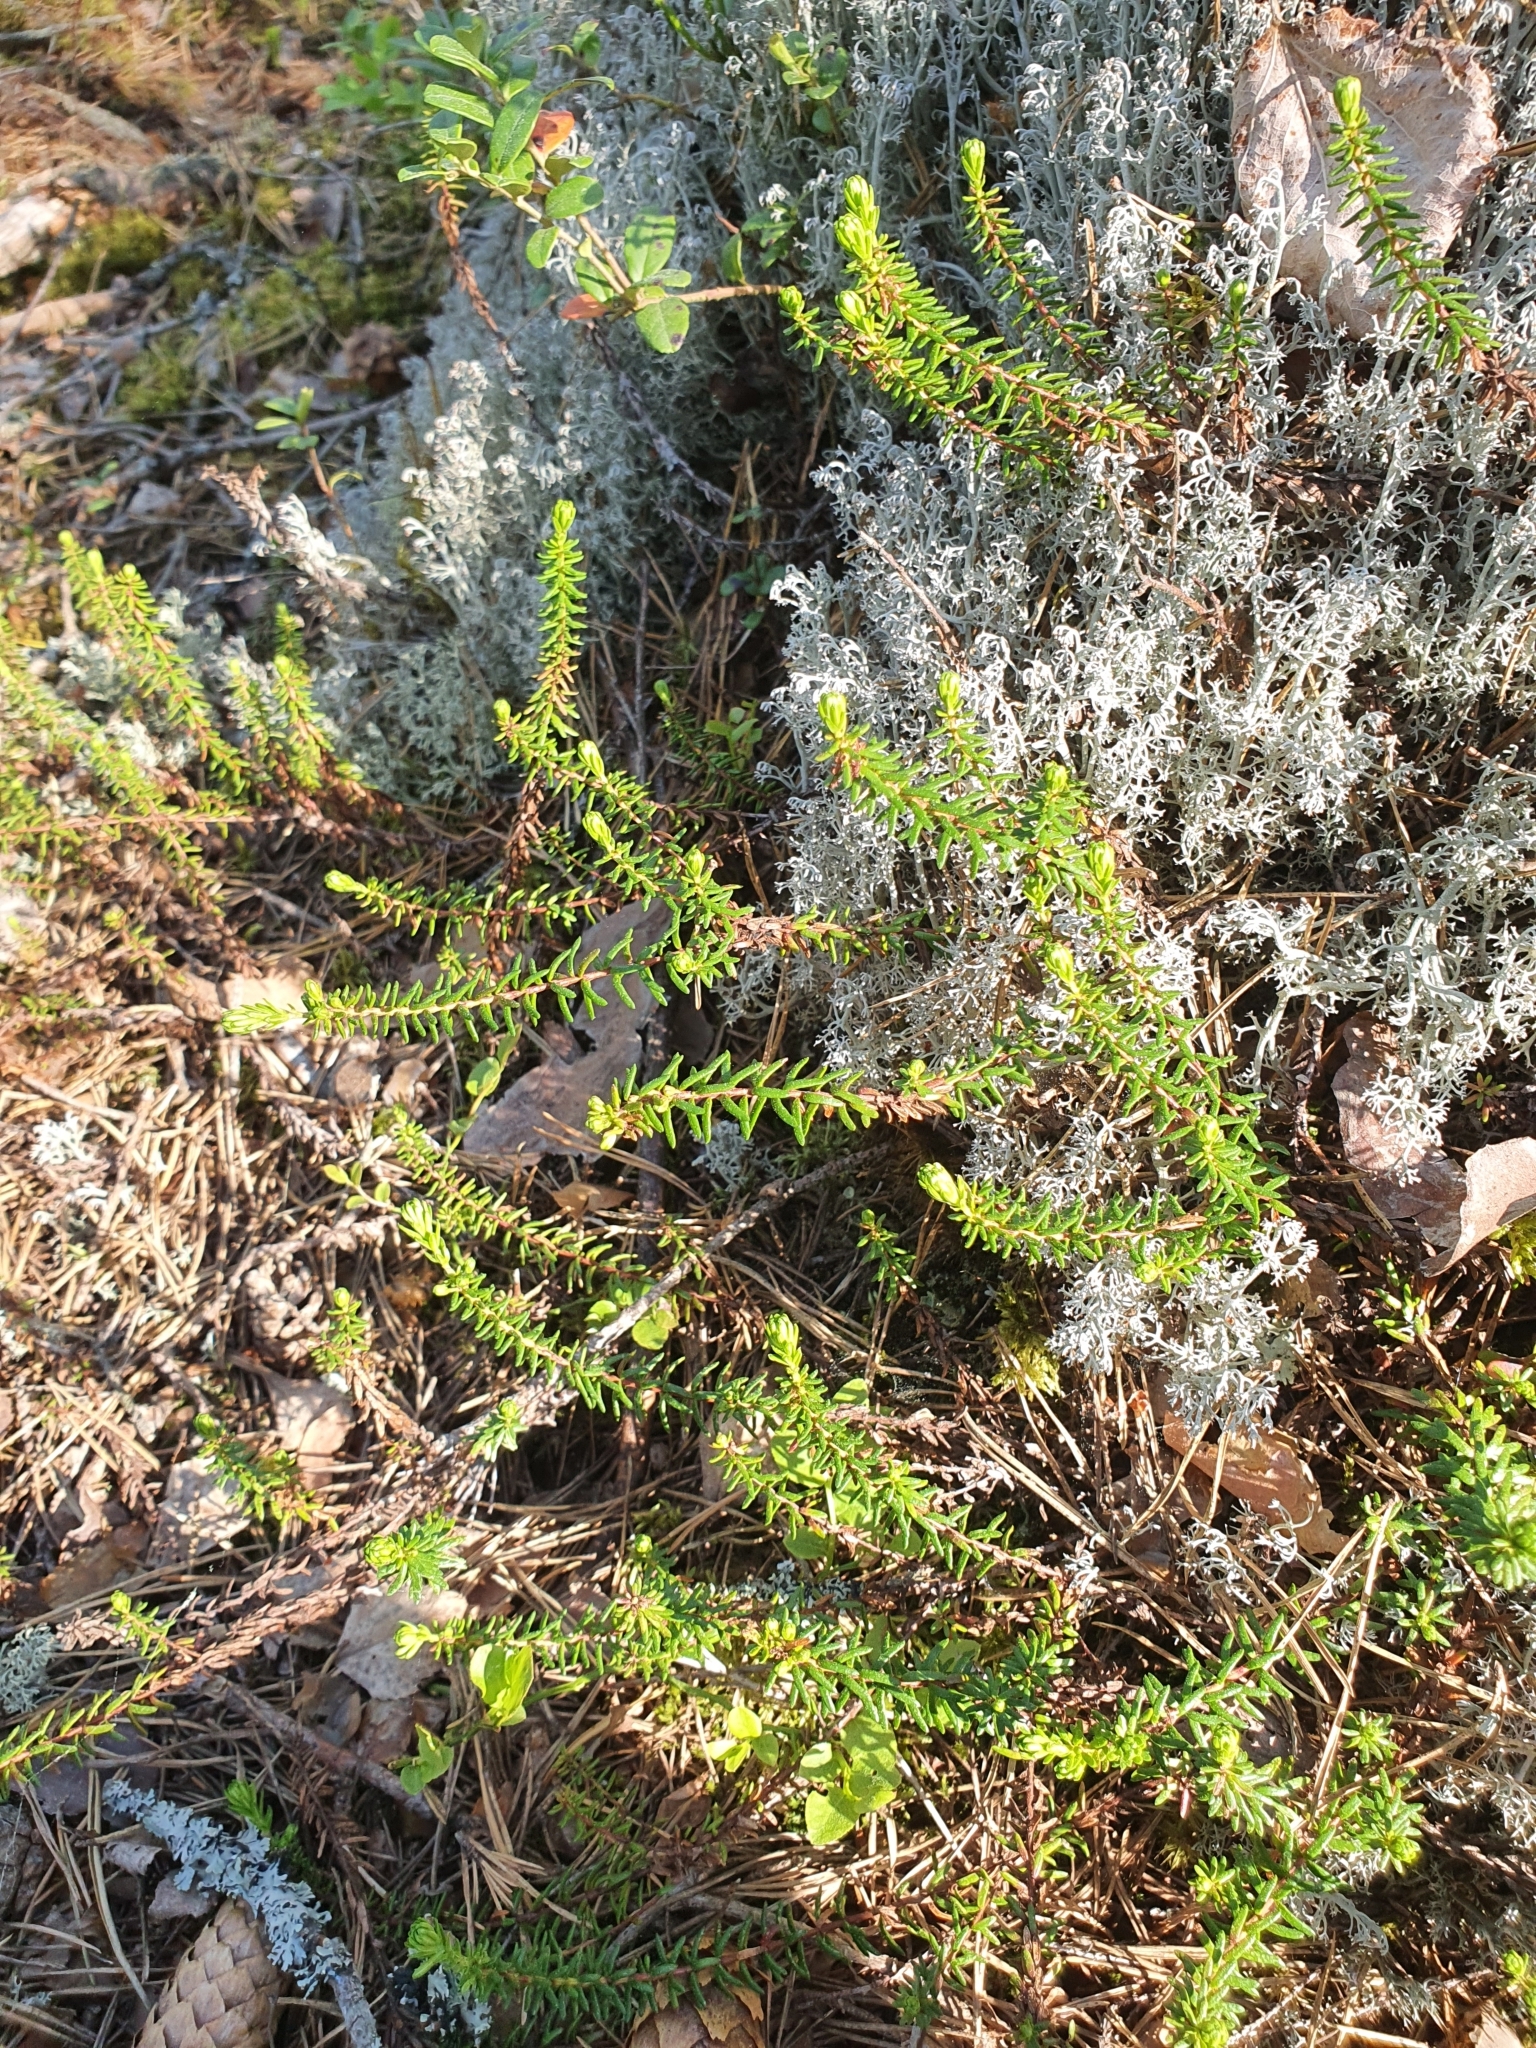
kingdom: Plantae
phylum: Tracheophyta
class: Magnoliopsida
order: Ericales
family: Ericaceae
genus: Empetrum
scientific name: Empetrum nigrum
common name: Black crowberry
